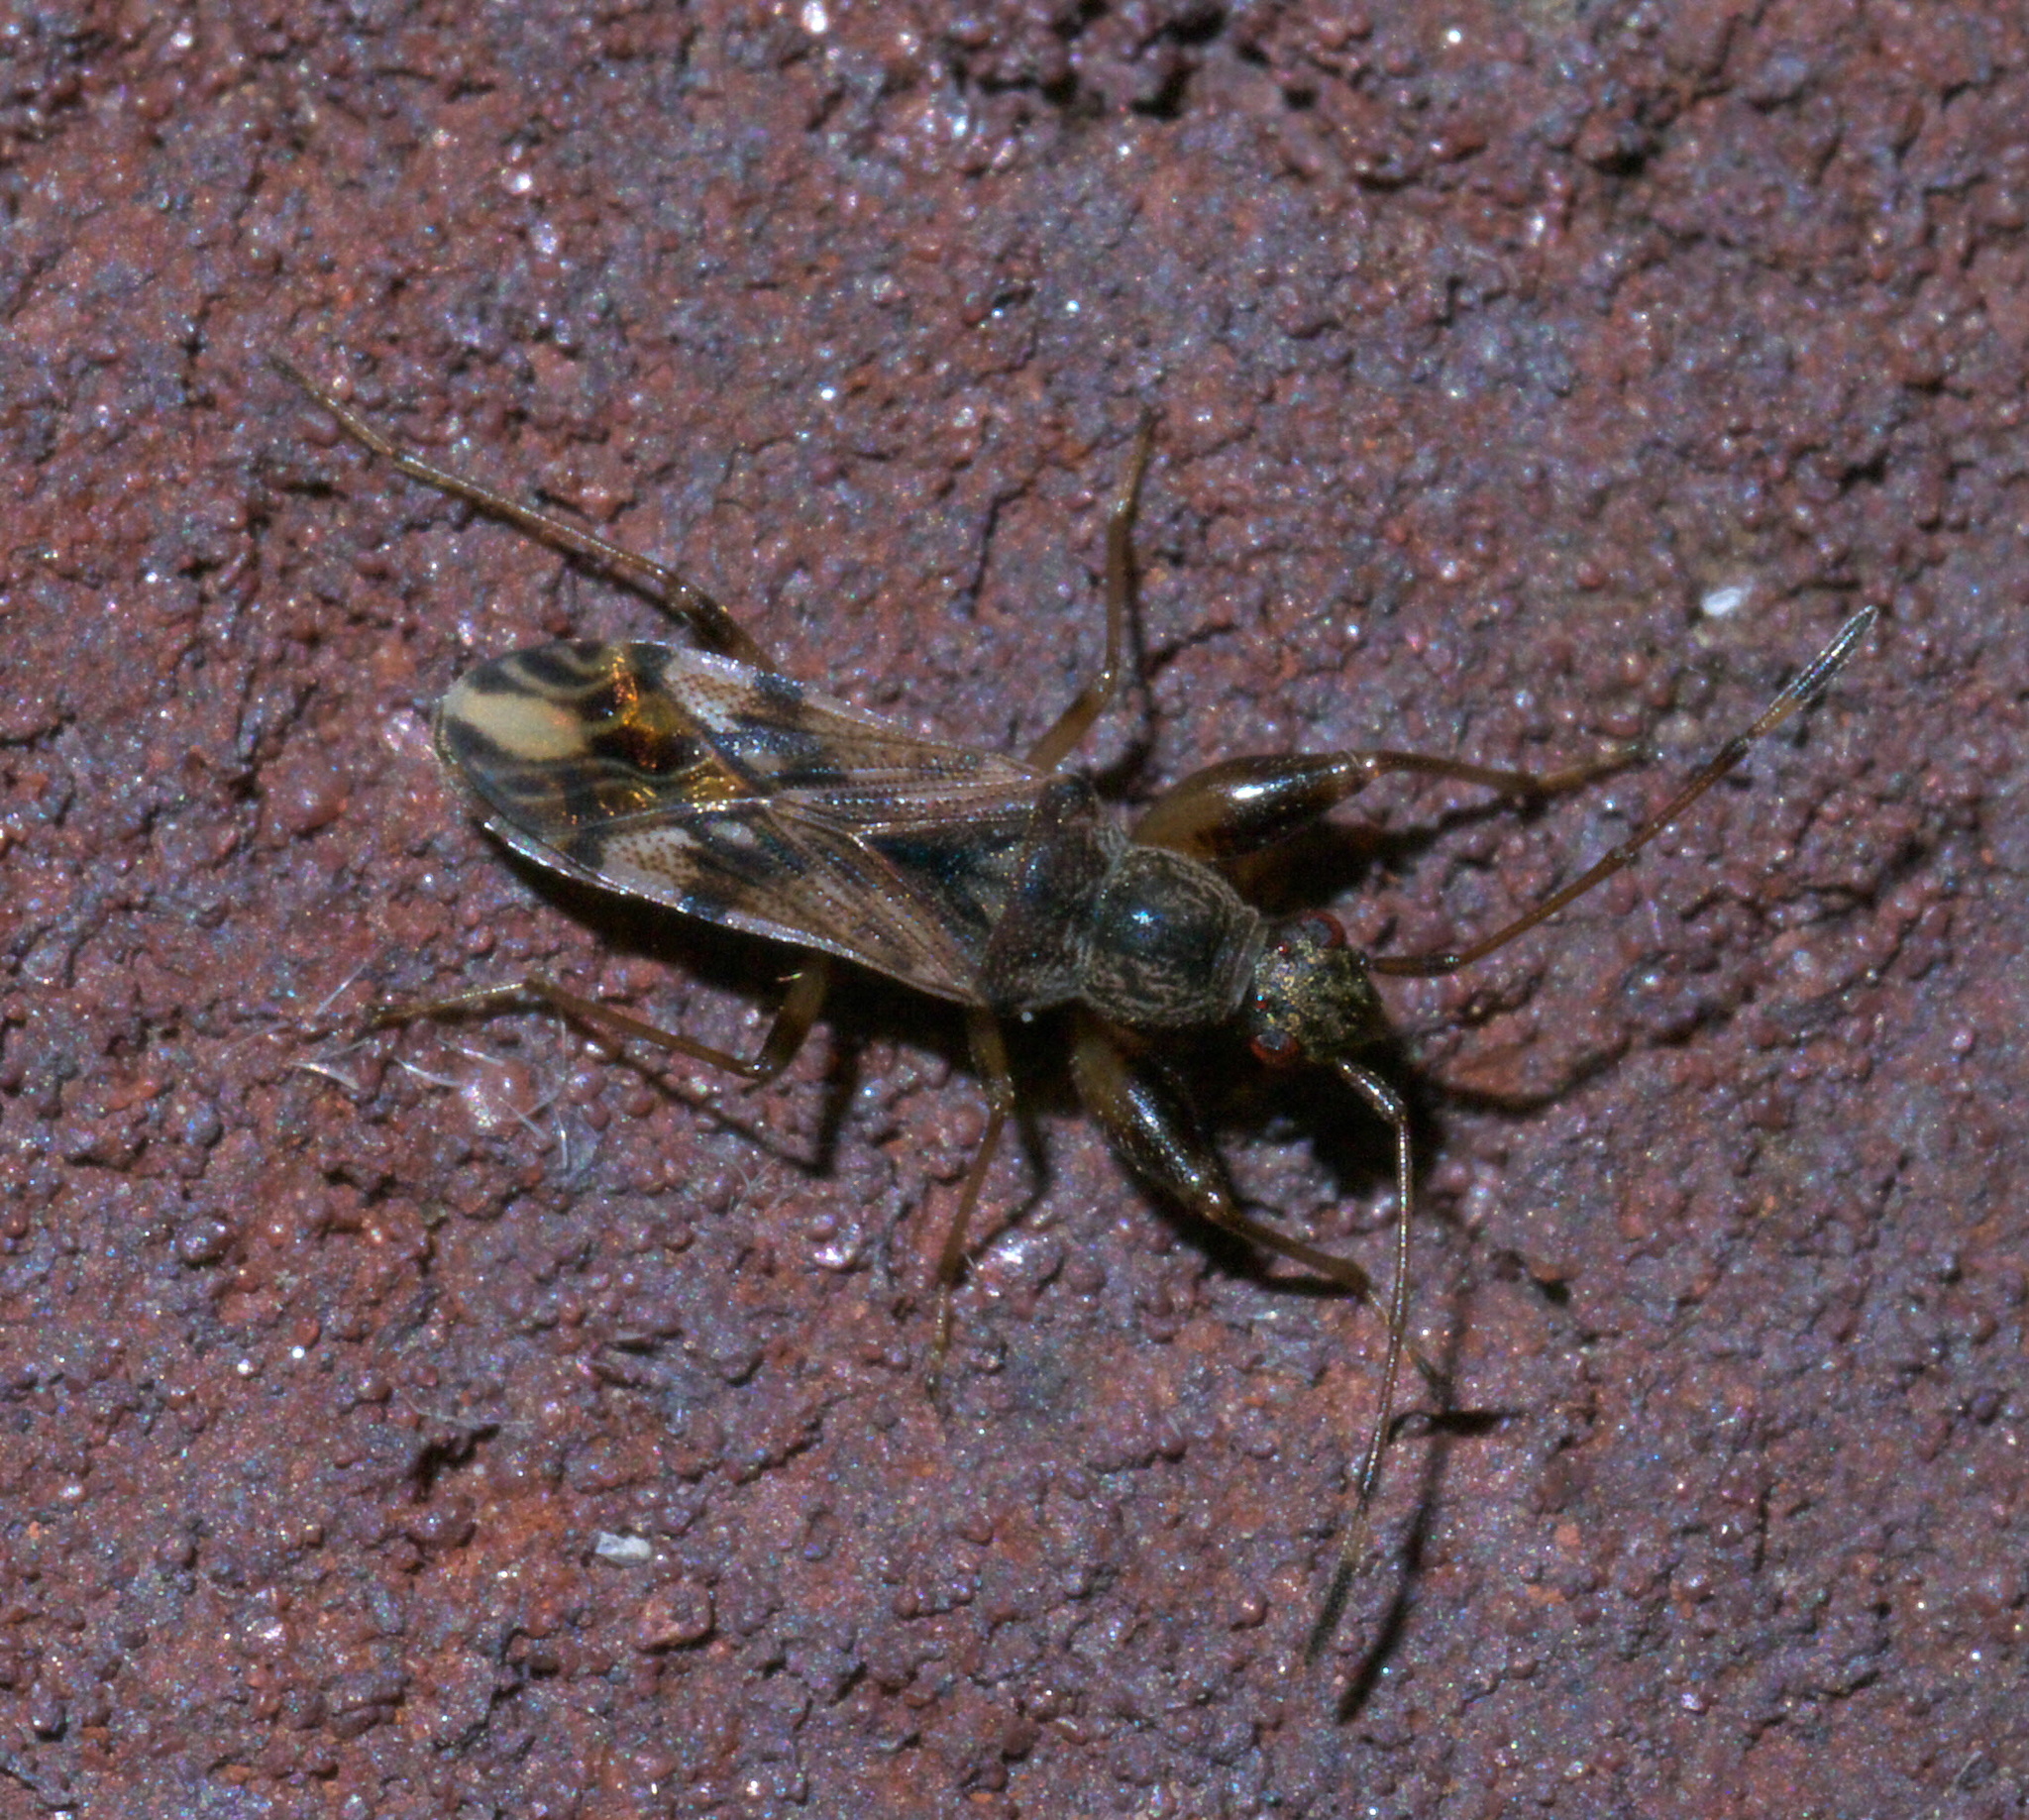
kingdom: Animalia
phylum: Arthropoda
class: Insecta
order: Hemiptera
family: Rhyparochromidae
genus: Neopamera
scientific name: Neopamera albocincta
